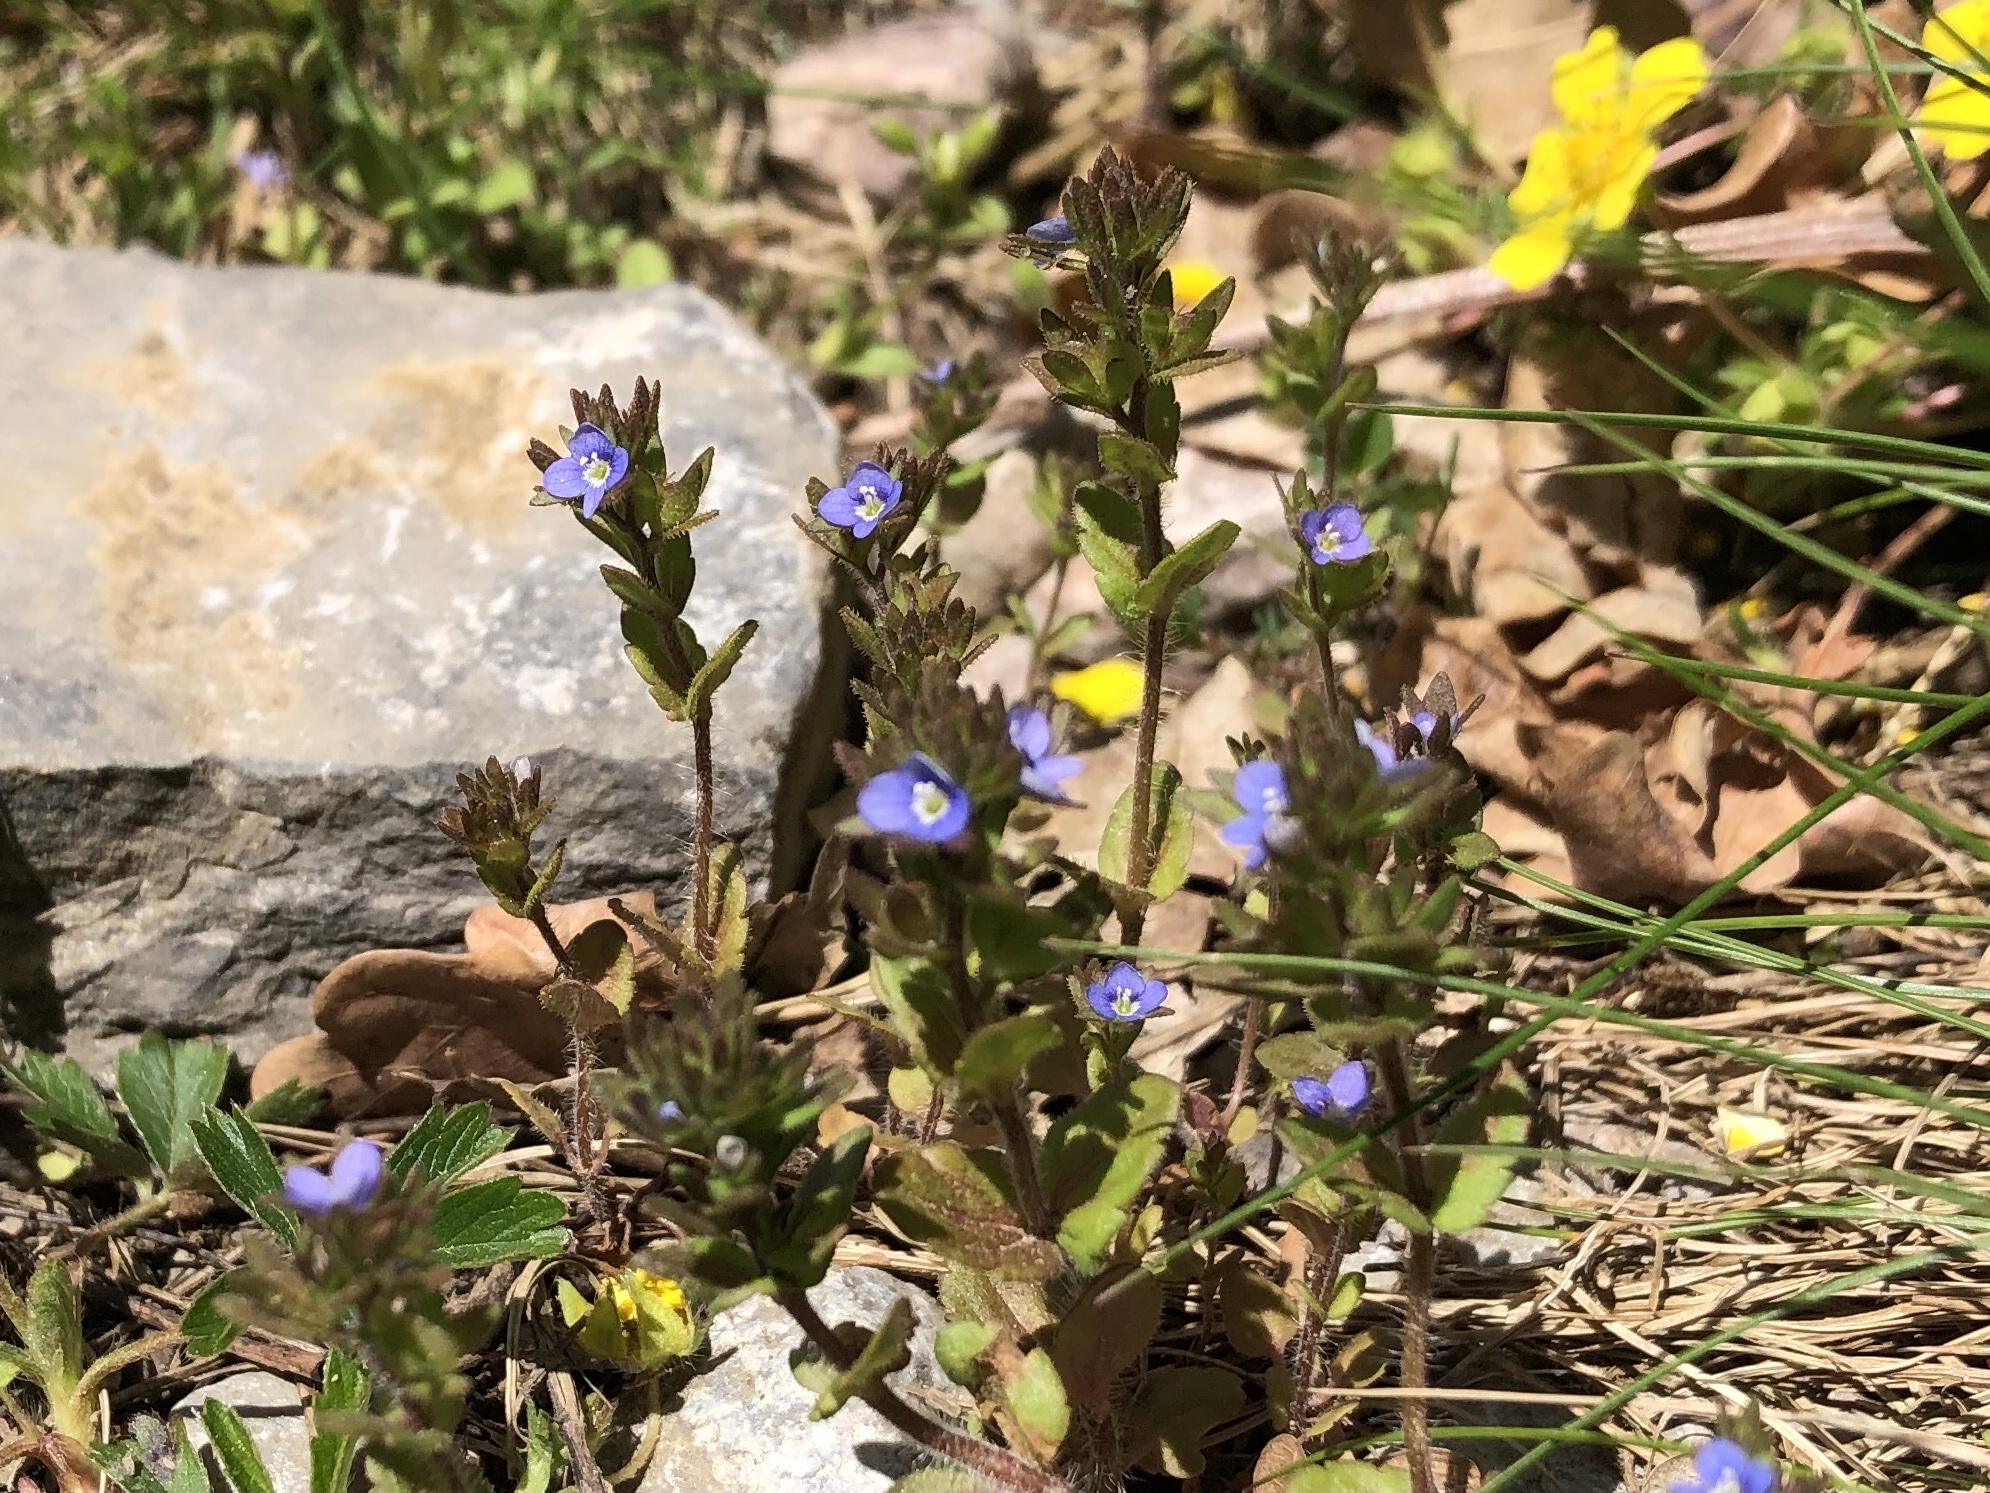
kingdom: Plantae
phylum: Tracheophyta
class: Magnoliopsida
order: Lamiales
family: Plantaginaceae
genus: Veronica
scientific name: Veronica arvensis
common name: Corn speedwell
